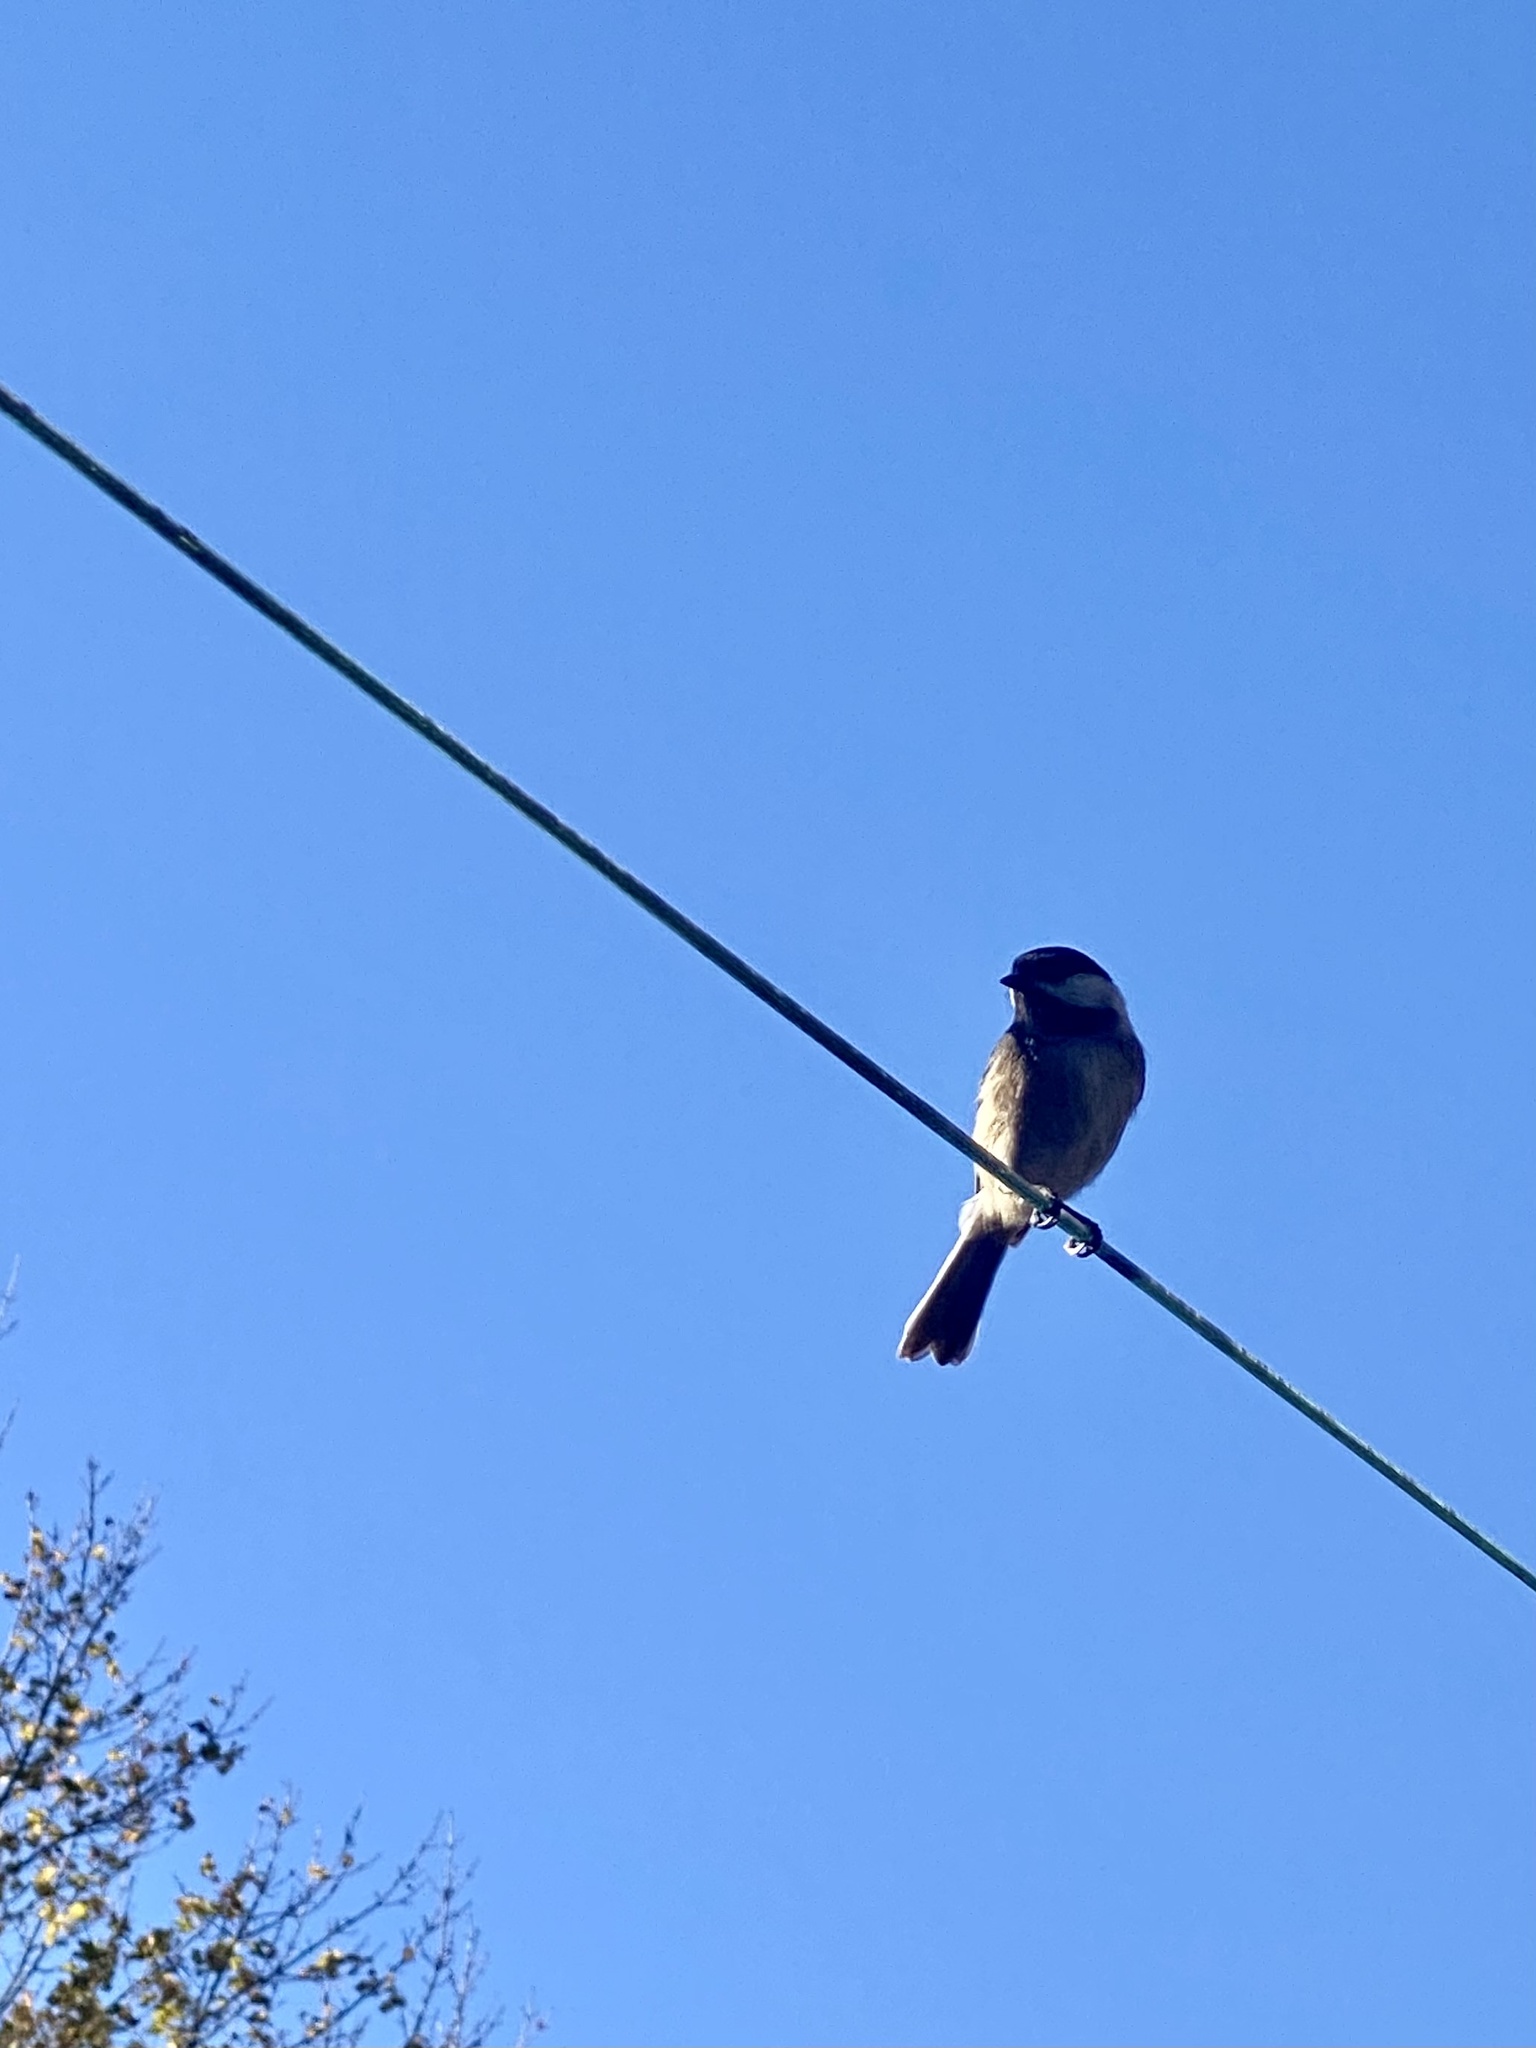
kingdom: Animalia
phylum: Chordata
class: Aves
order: Passeriformes
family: Paridae
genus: Poecile
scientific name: Poecile atricapillus
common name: Black-capped chickadee
